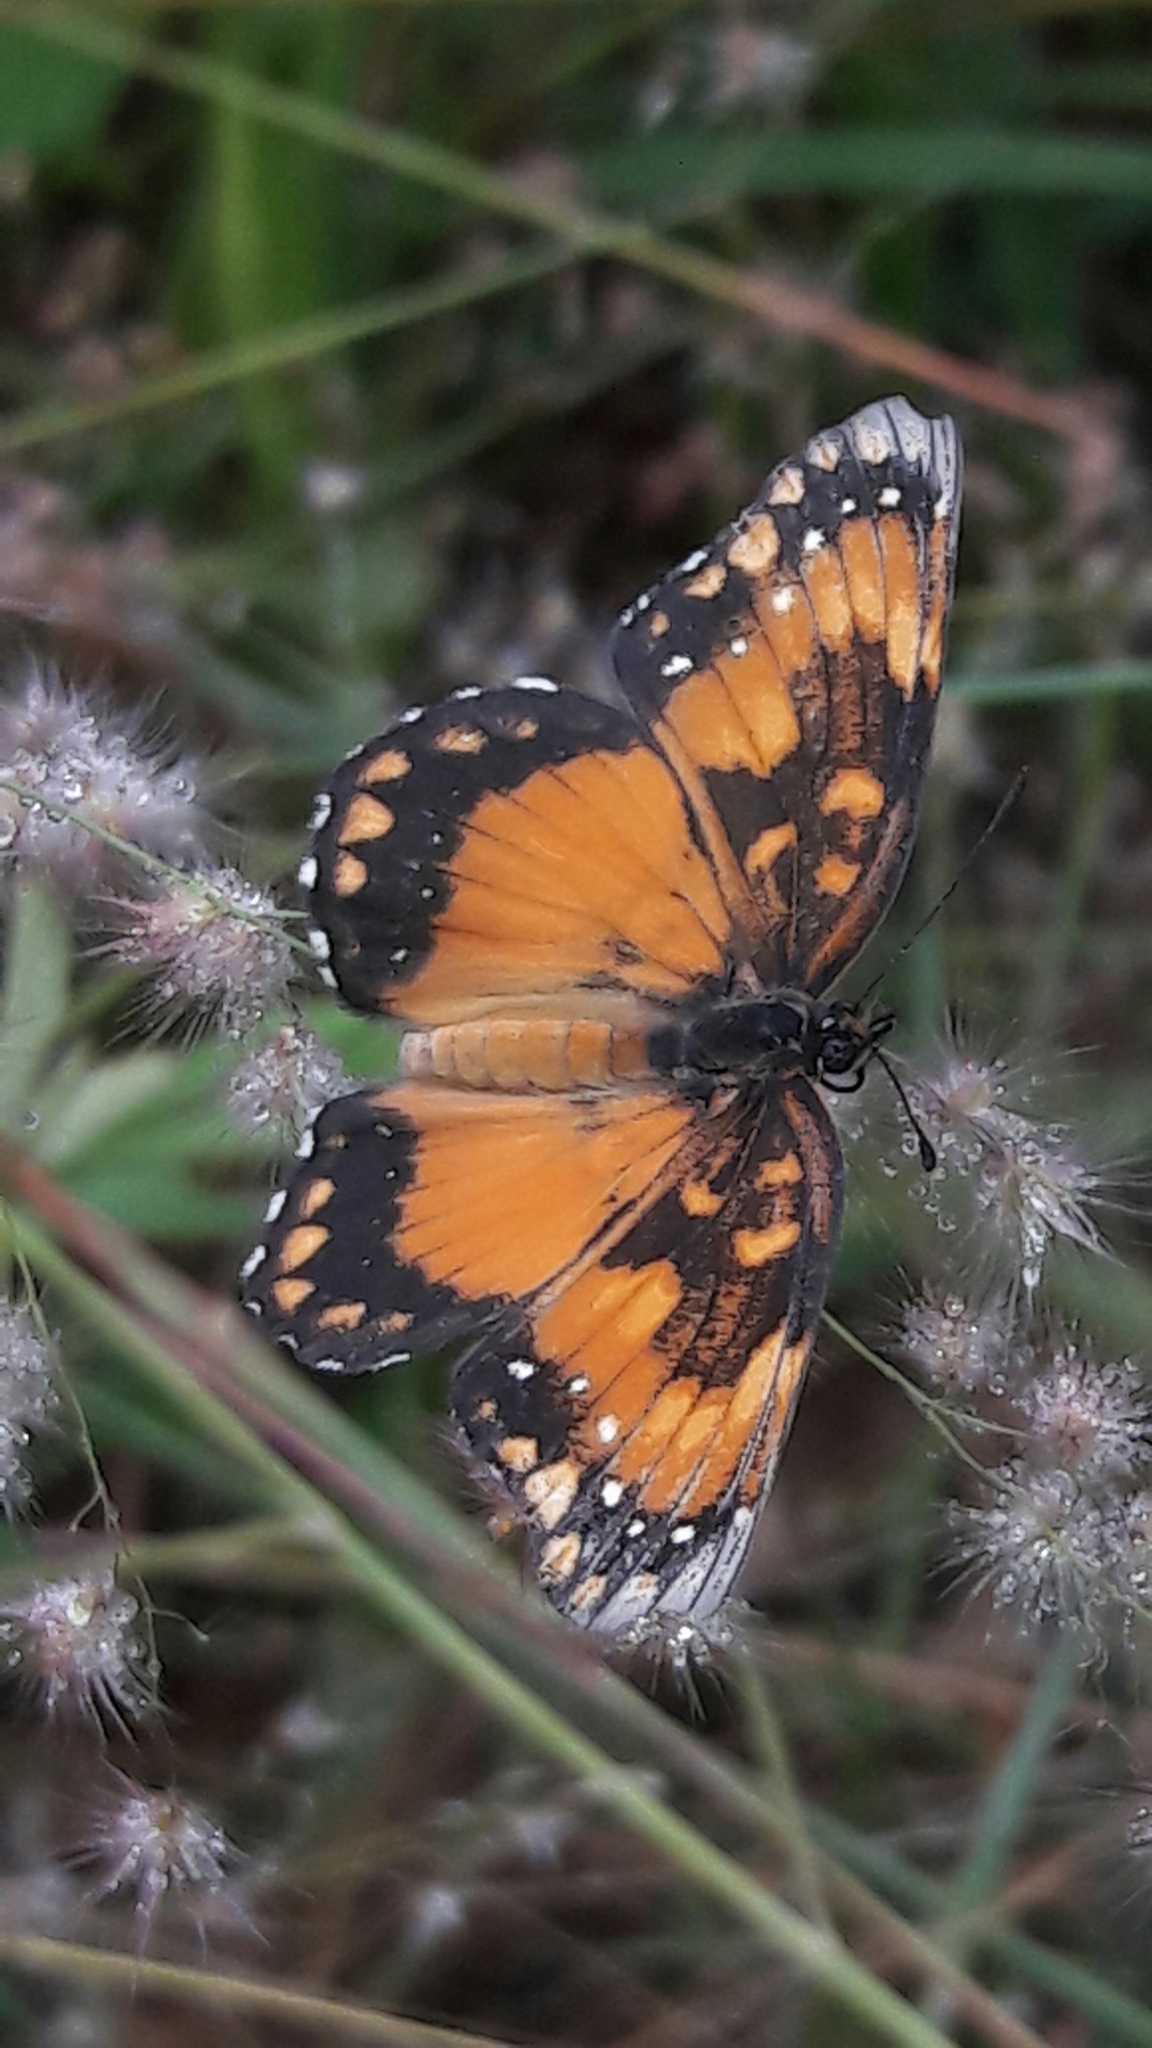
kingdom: Animalia
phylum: Arthropoda
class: Insecta
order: Lepidoptera
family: Nymphalidae
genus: Chlosyne
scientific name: Chlosyne lacinia
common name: Bordered patch
